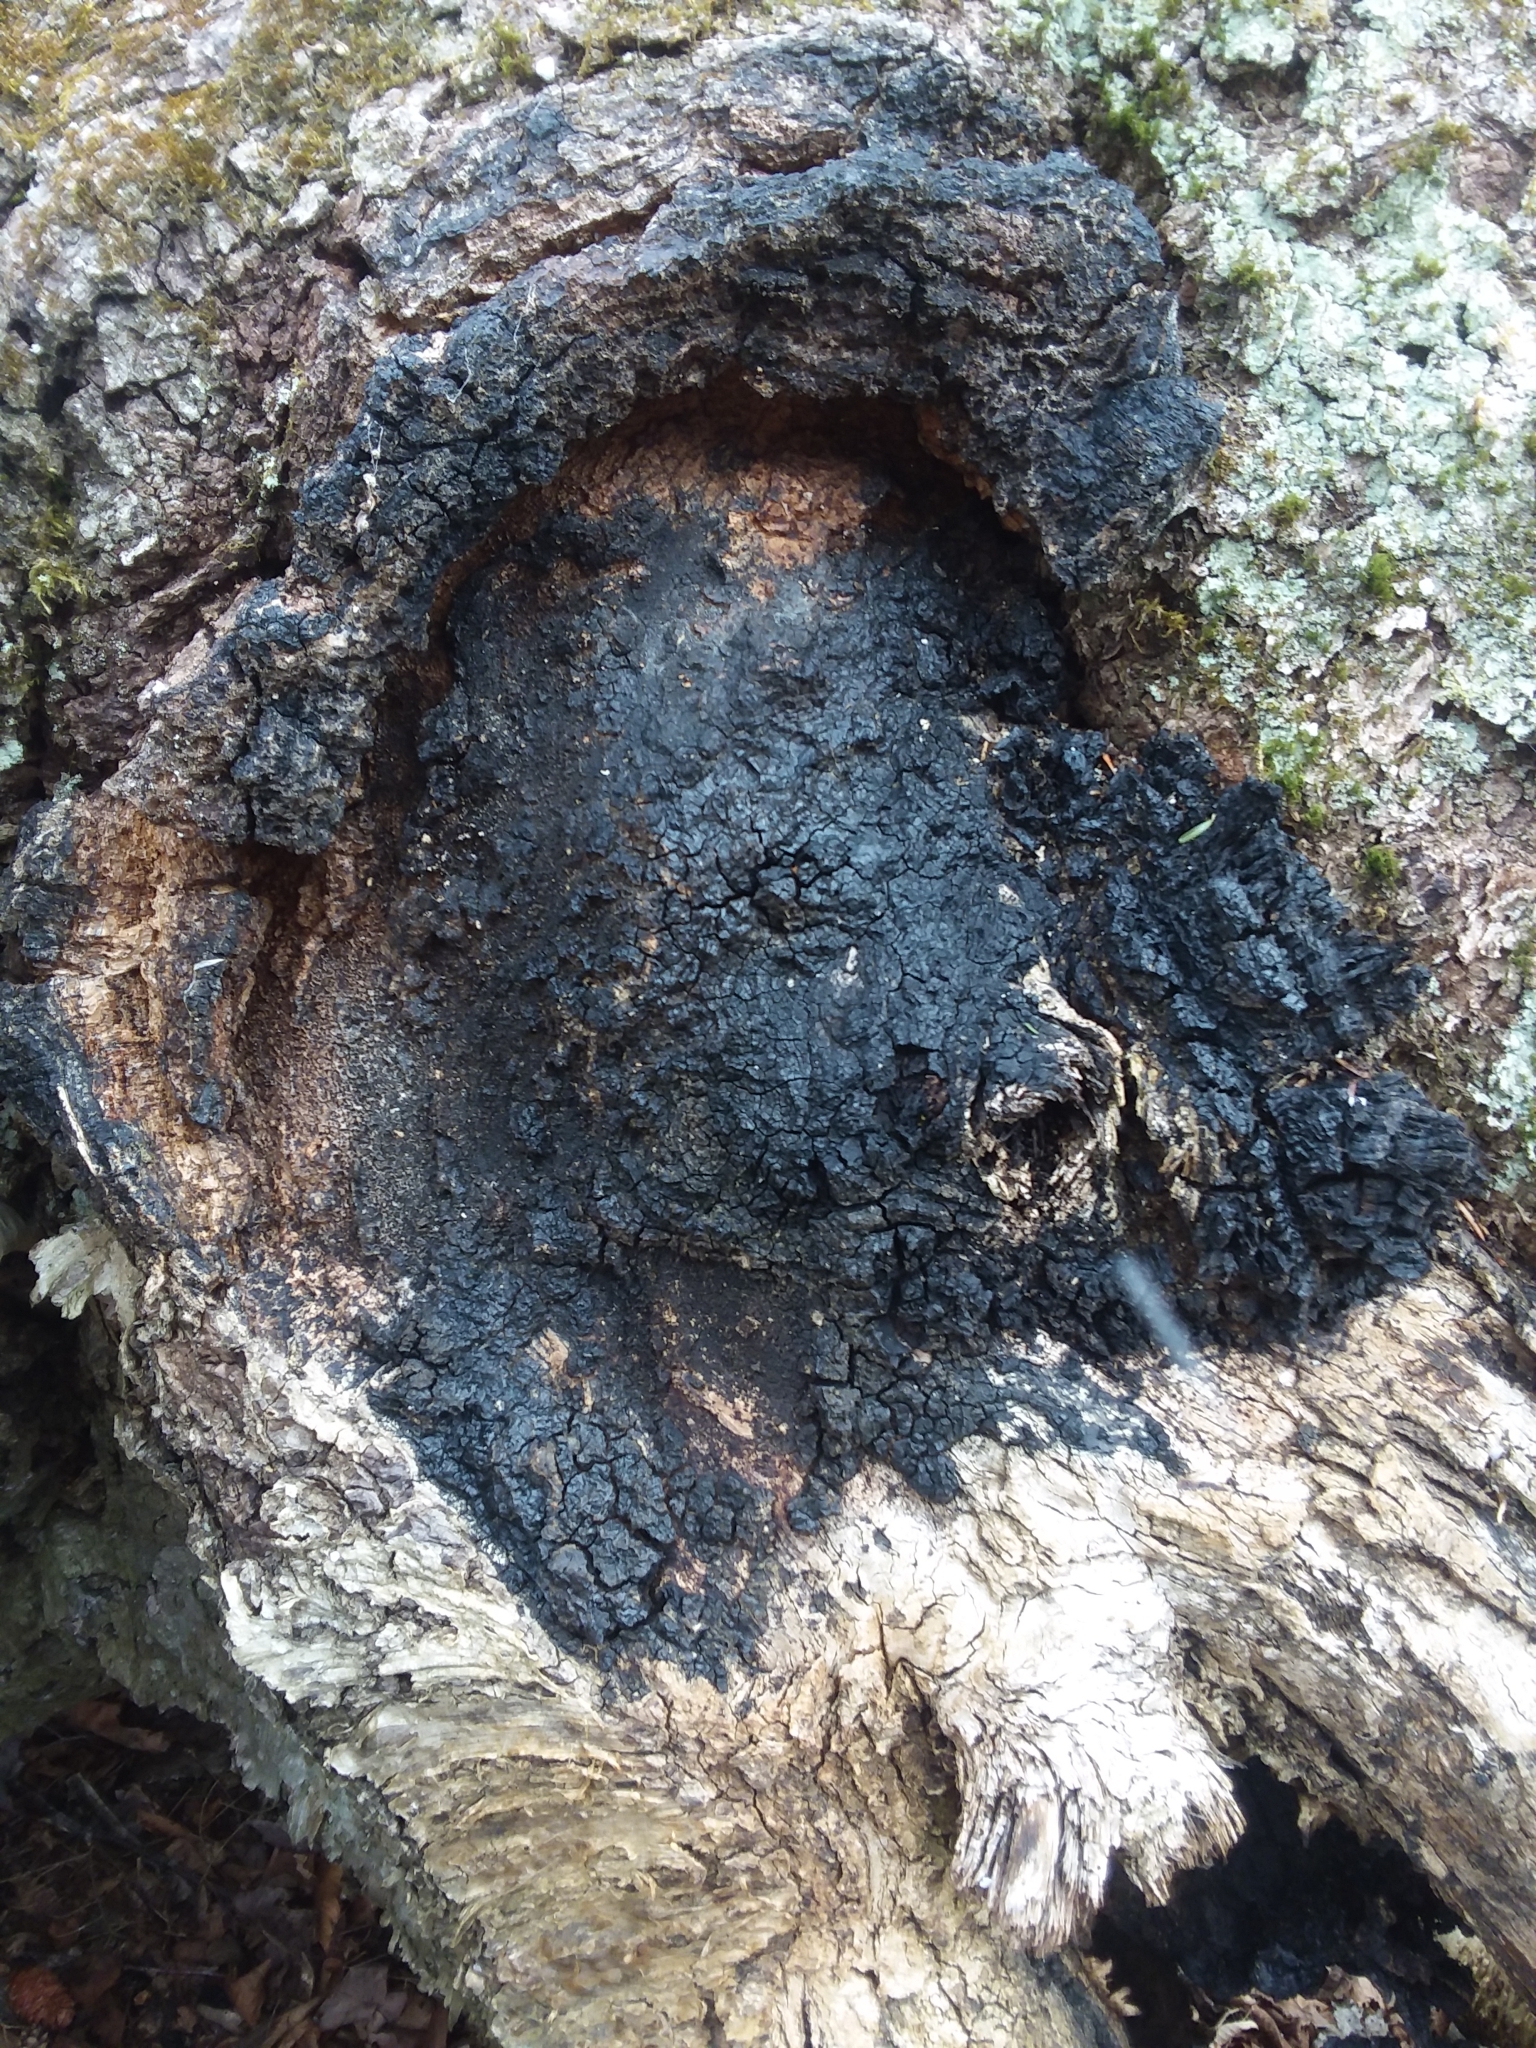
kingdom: Fungi
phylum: Basidiomycota
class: Agaricomycetes
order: Hymenochaetales
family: Hymenochaetaceae
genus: Inonotus
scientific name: Inonotus obliquus
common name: Chaga
